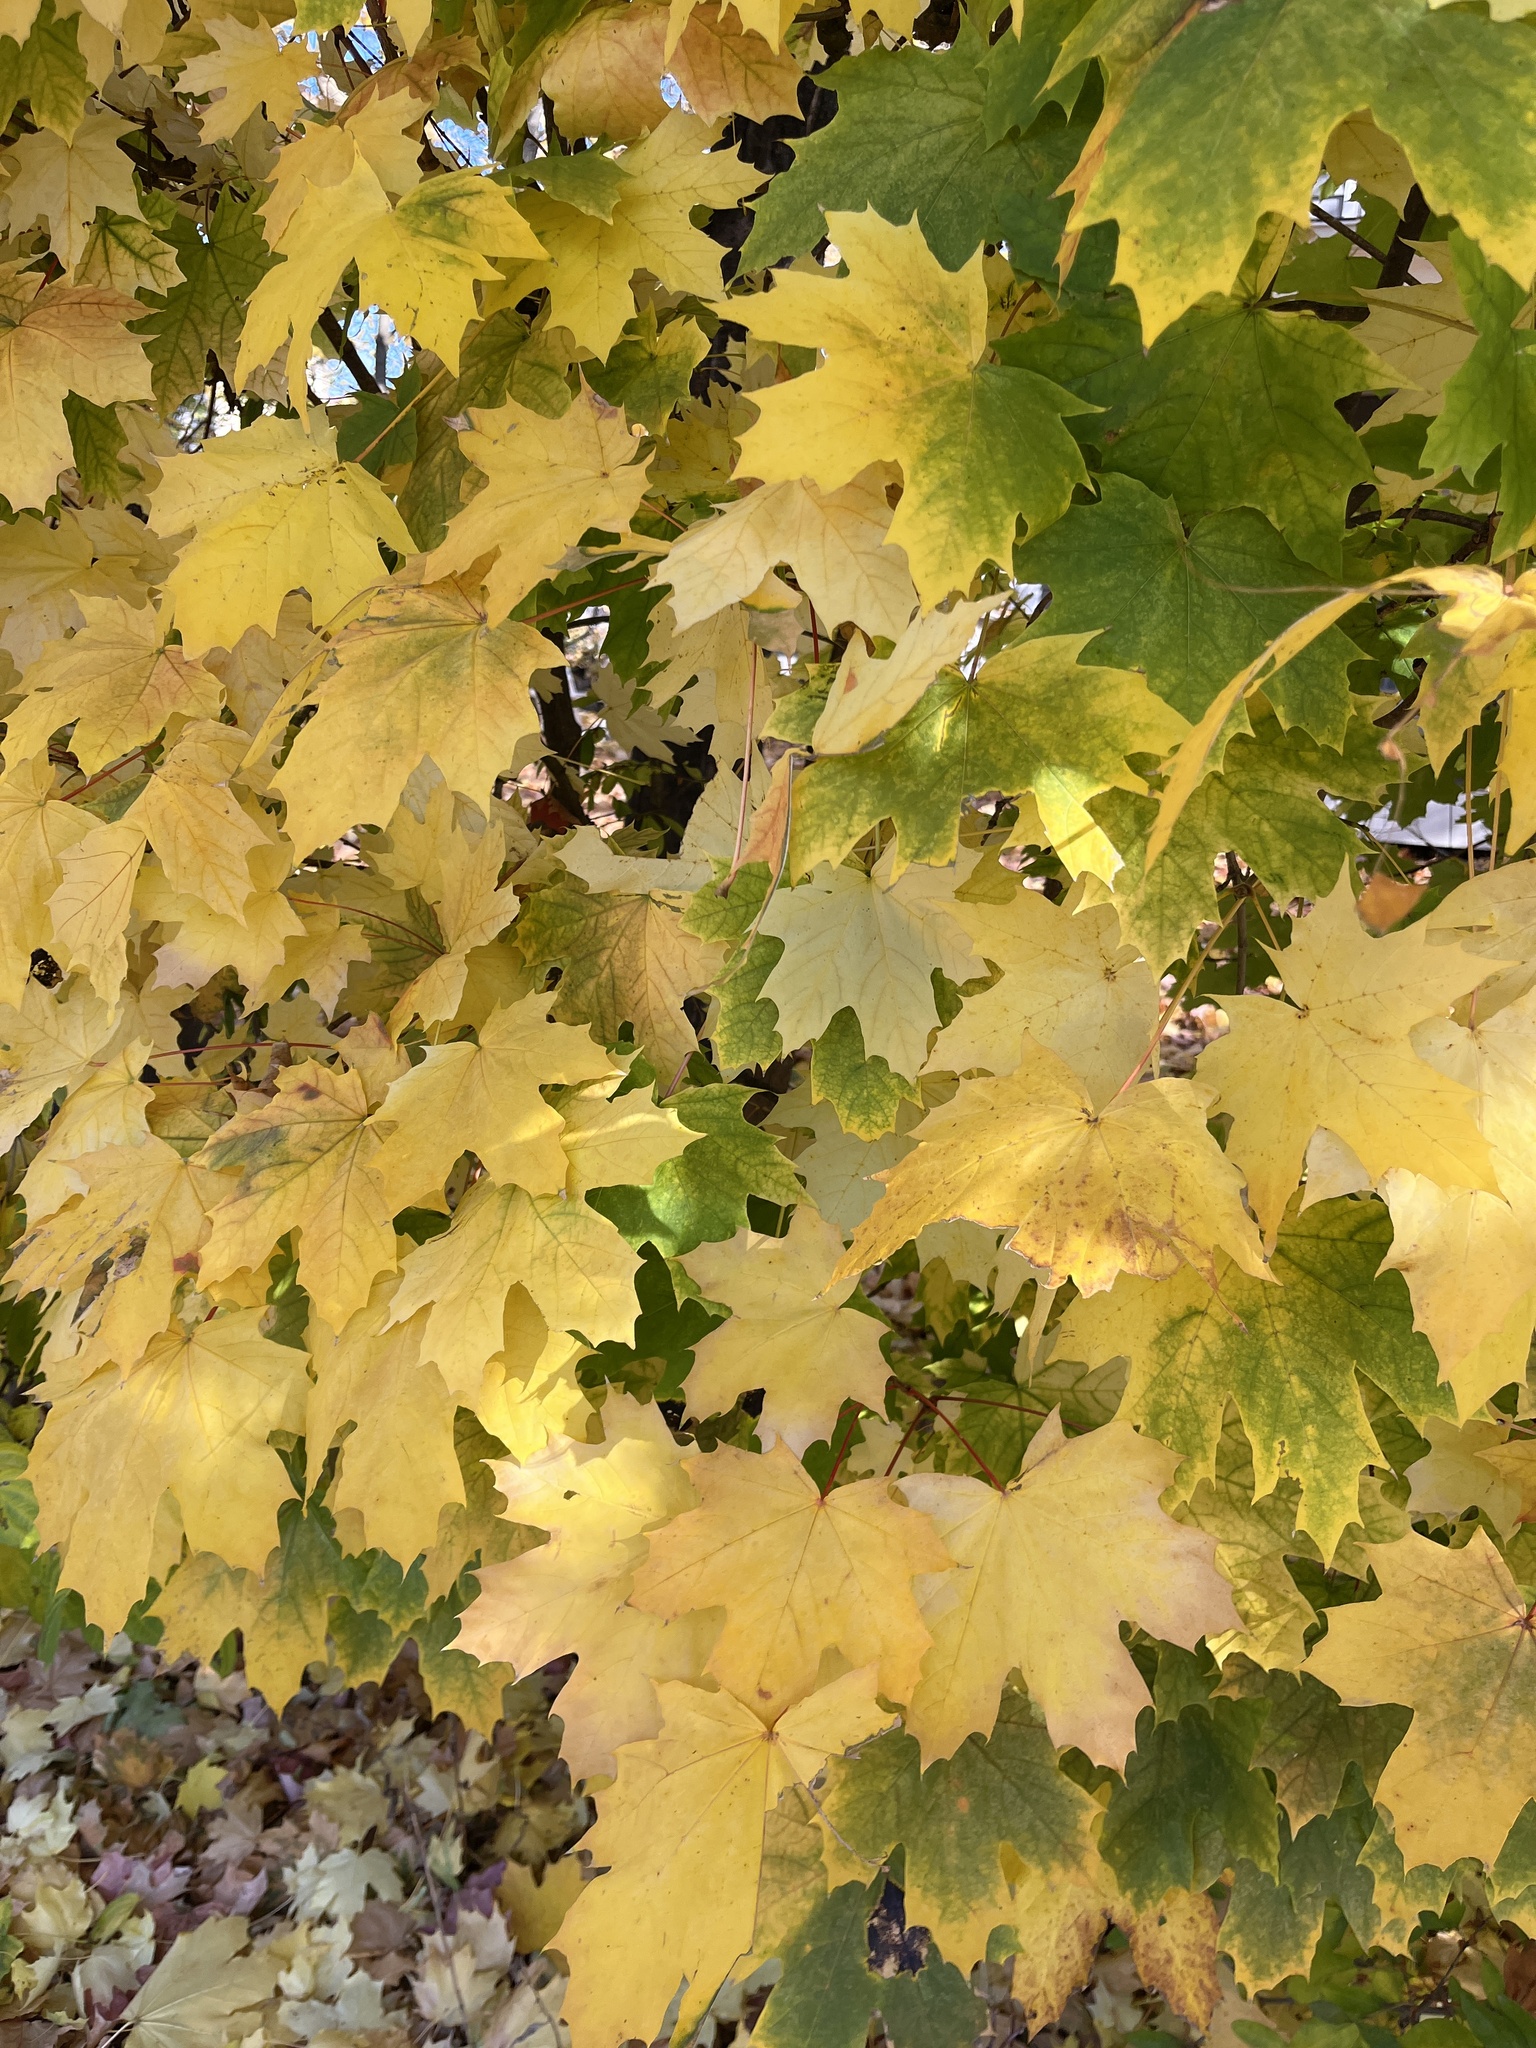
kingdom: Plantae
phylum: Tracheophyta
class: Magnoliopsida
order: Sapindales
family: Sapindaceae
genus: Acer
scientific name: Acer platanoides
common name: Norway maple
